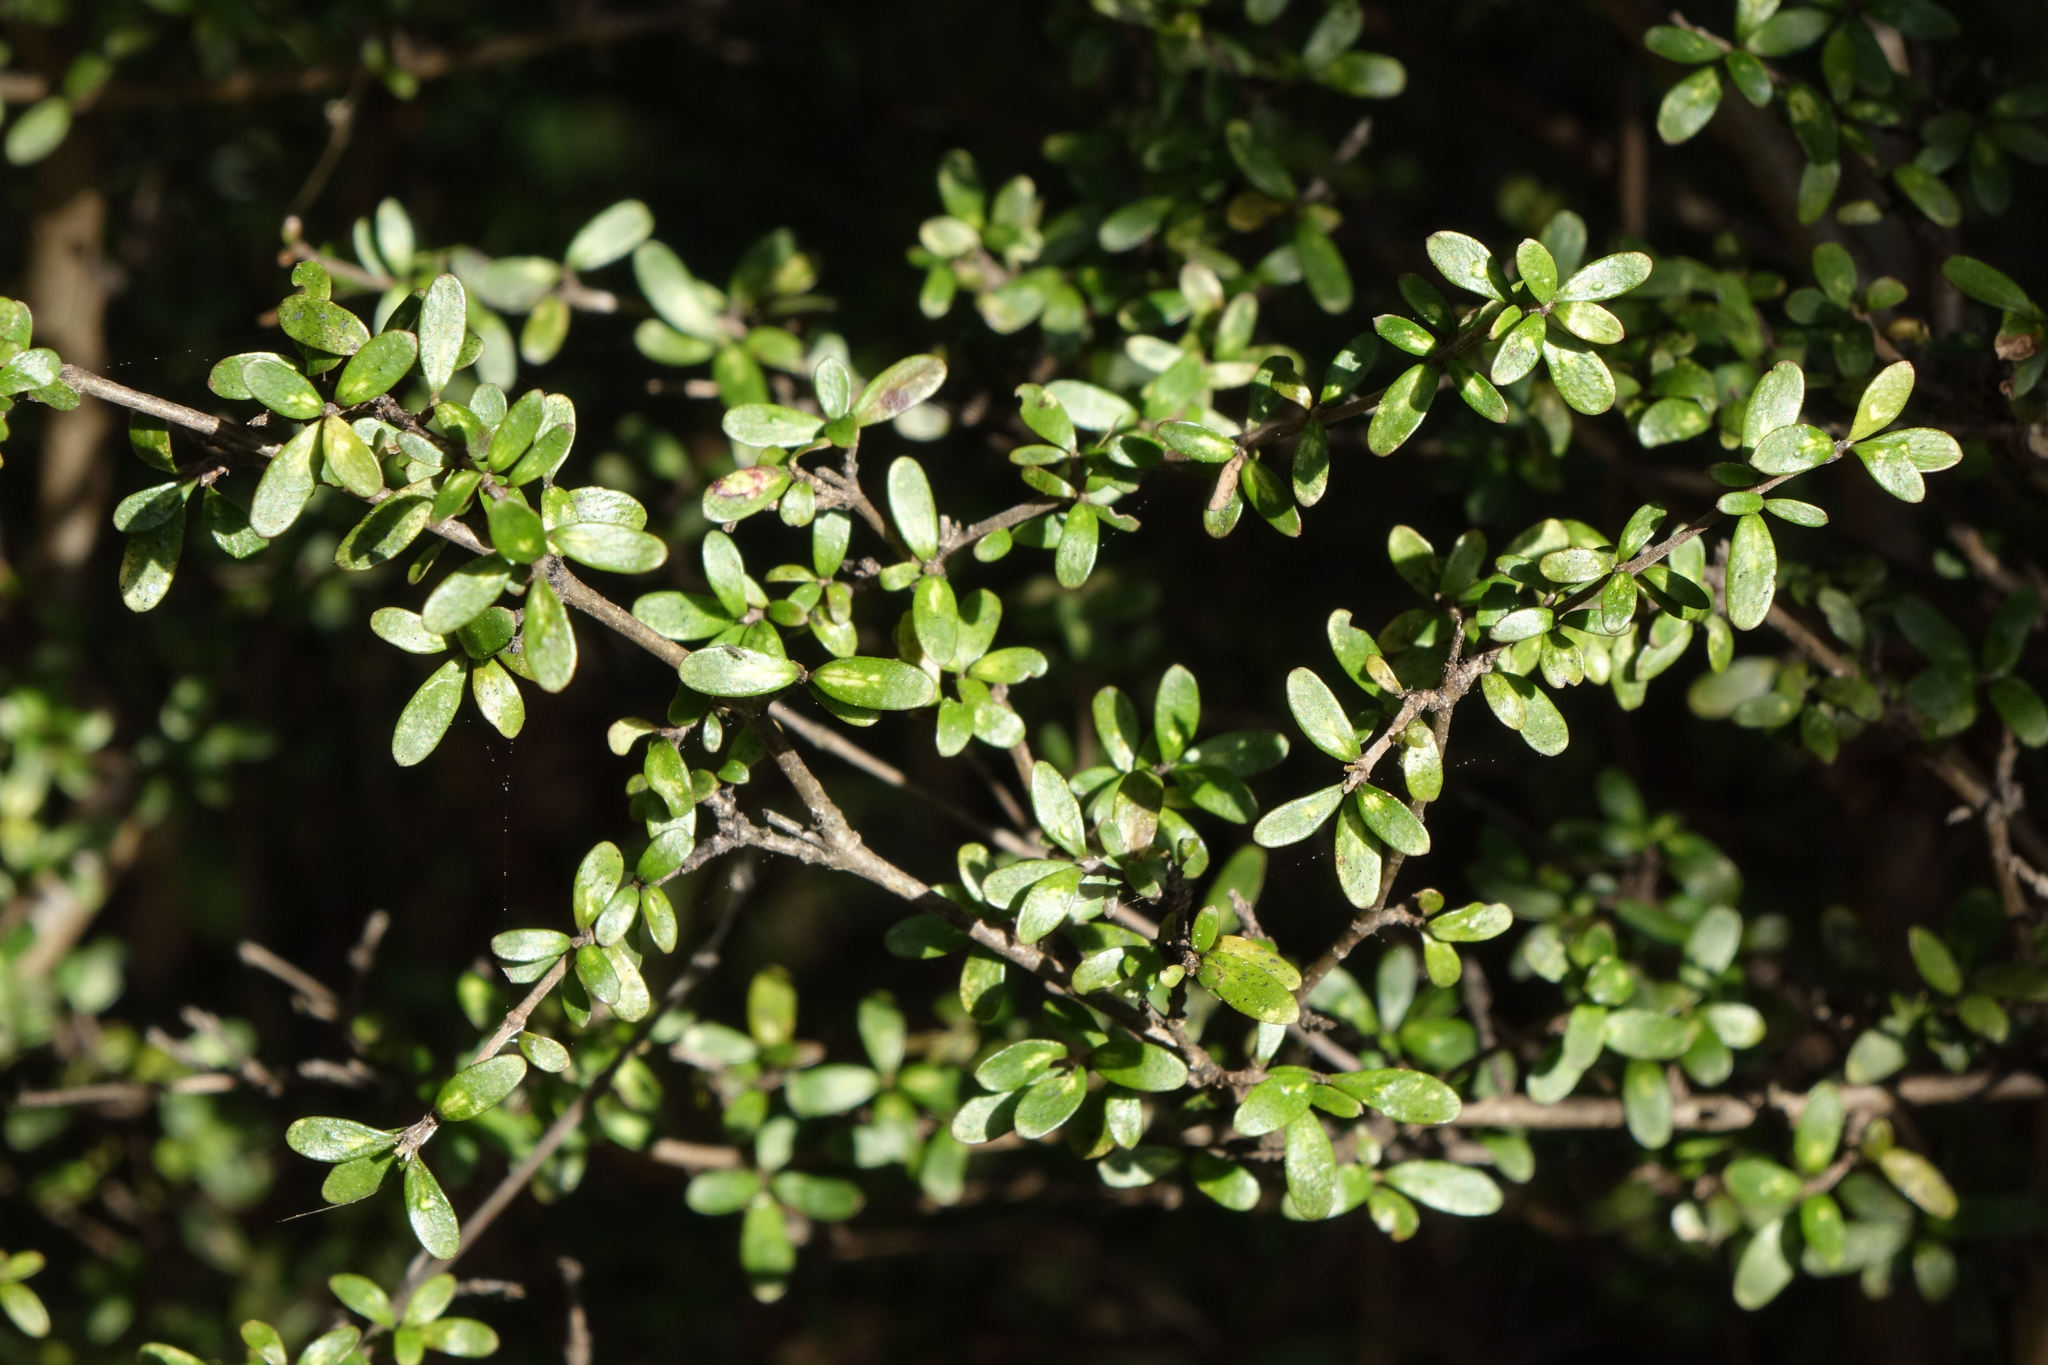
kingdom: Plantae
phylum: Tracheophyta
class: Magnoliopsida
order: Gentianales
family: Rubiaceae
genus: Coprosma
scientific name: Coprosma dumosa
